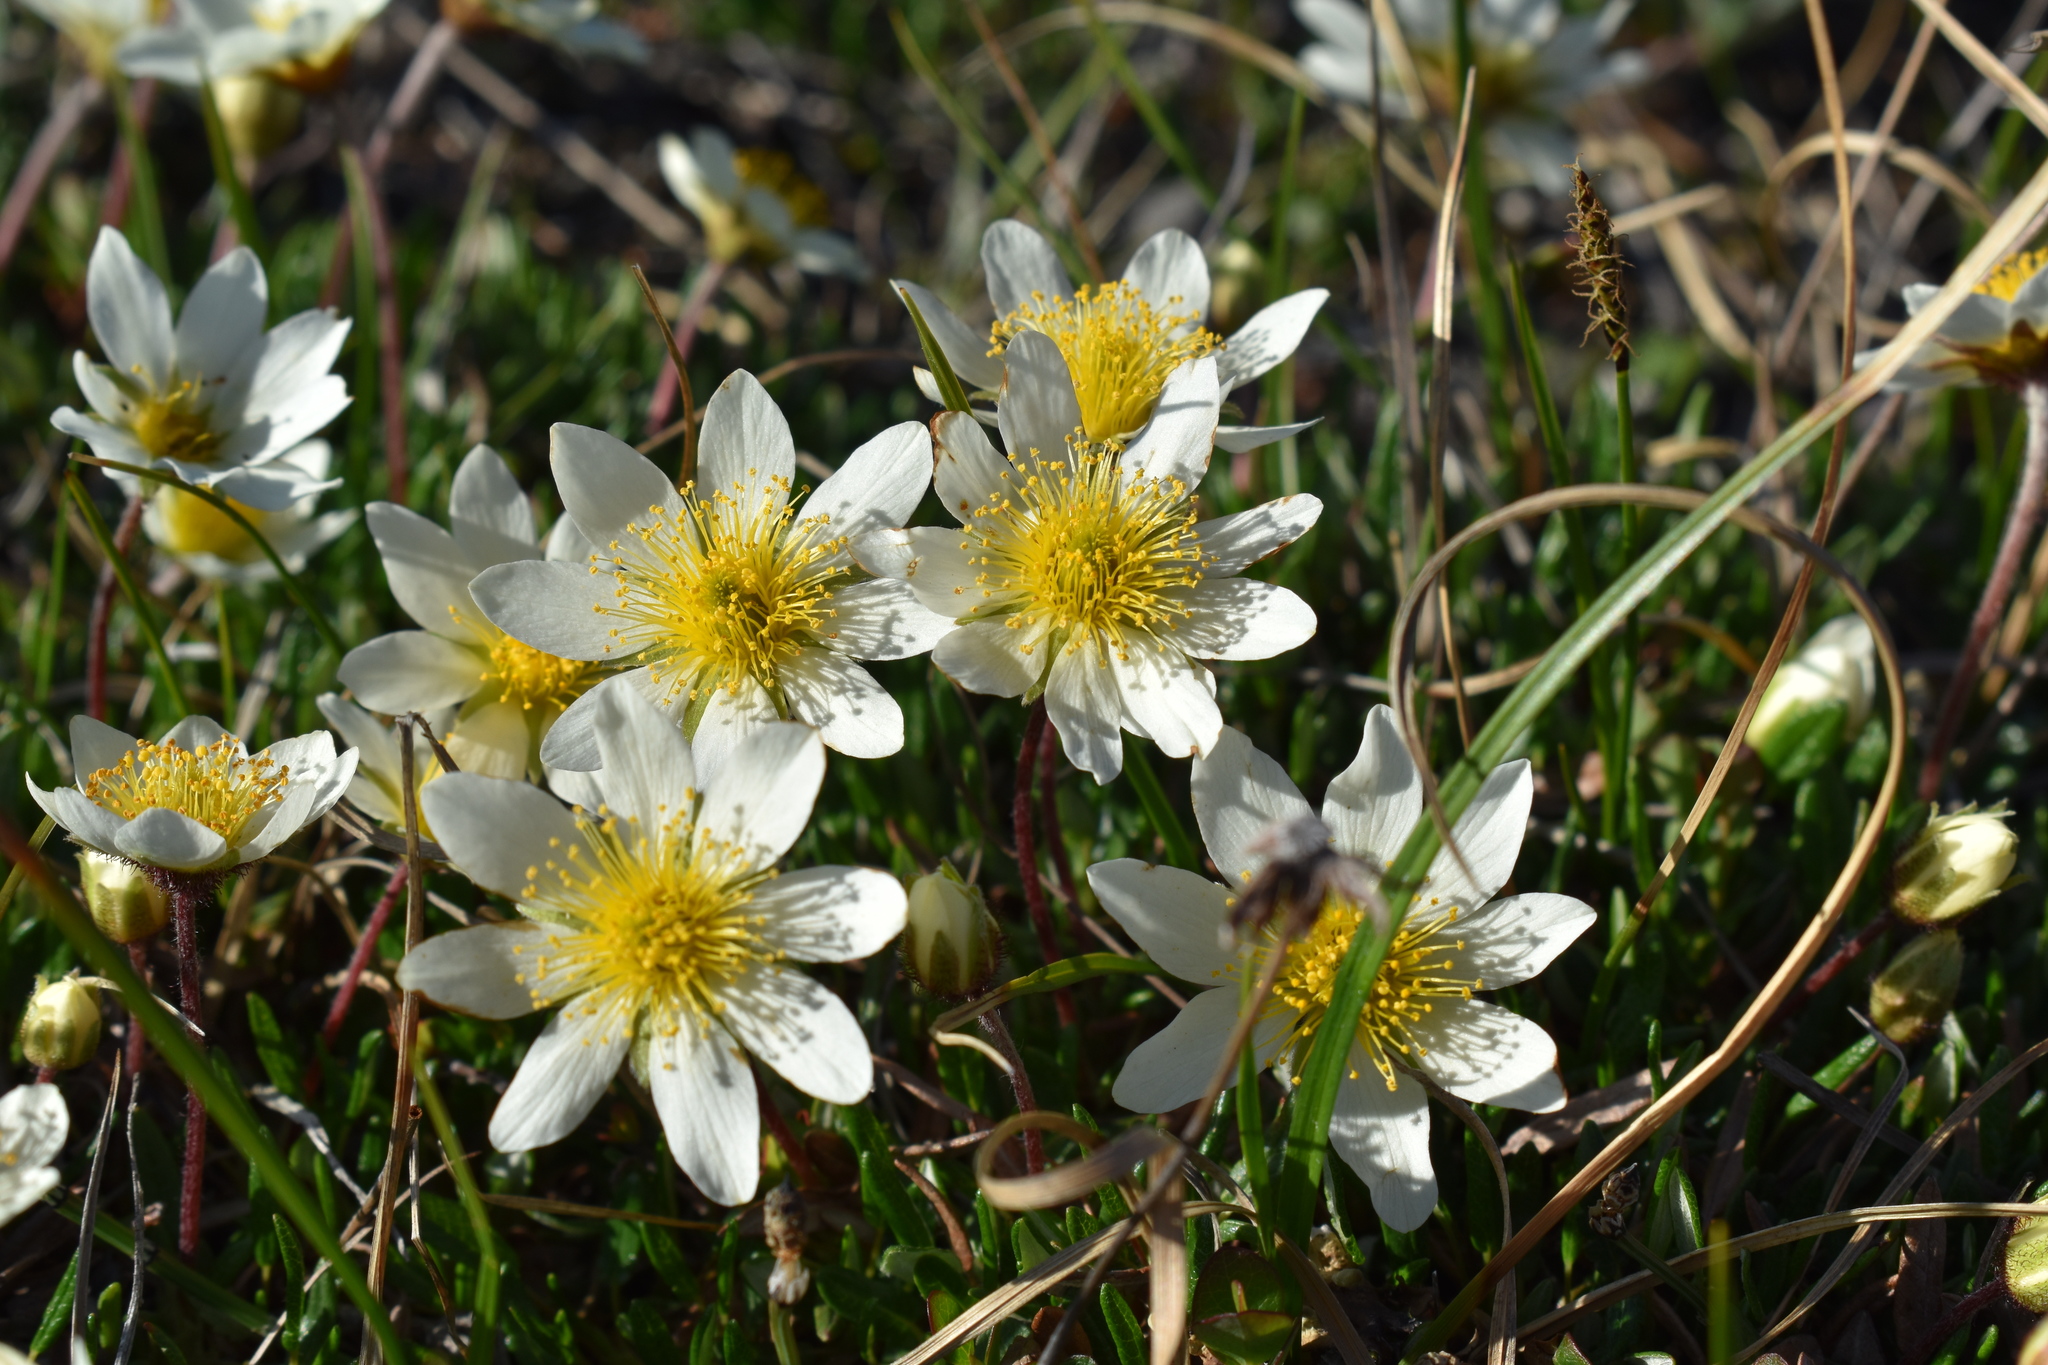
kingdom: Plantae
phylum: Tracheophyta
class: Magnoliopsida
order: Rosales
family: Rosaceae
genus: Dryas
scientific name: Dryas integrifolia
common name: Entire-leaved mountain avens
